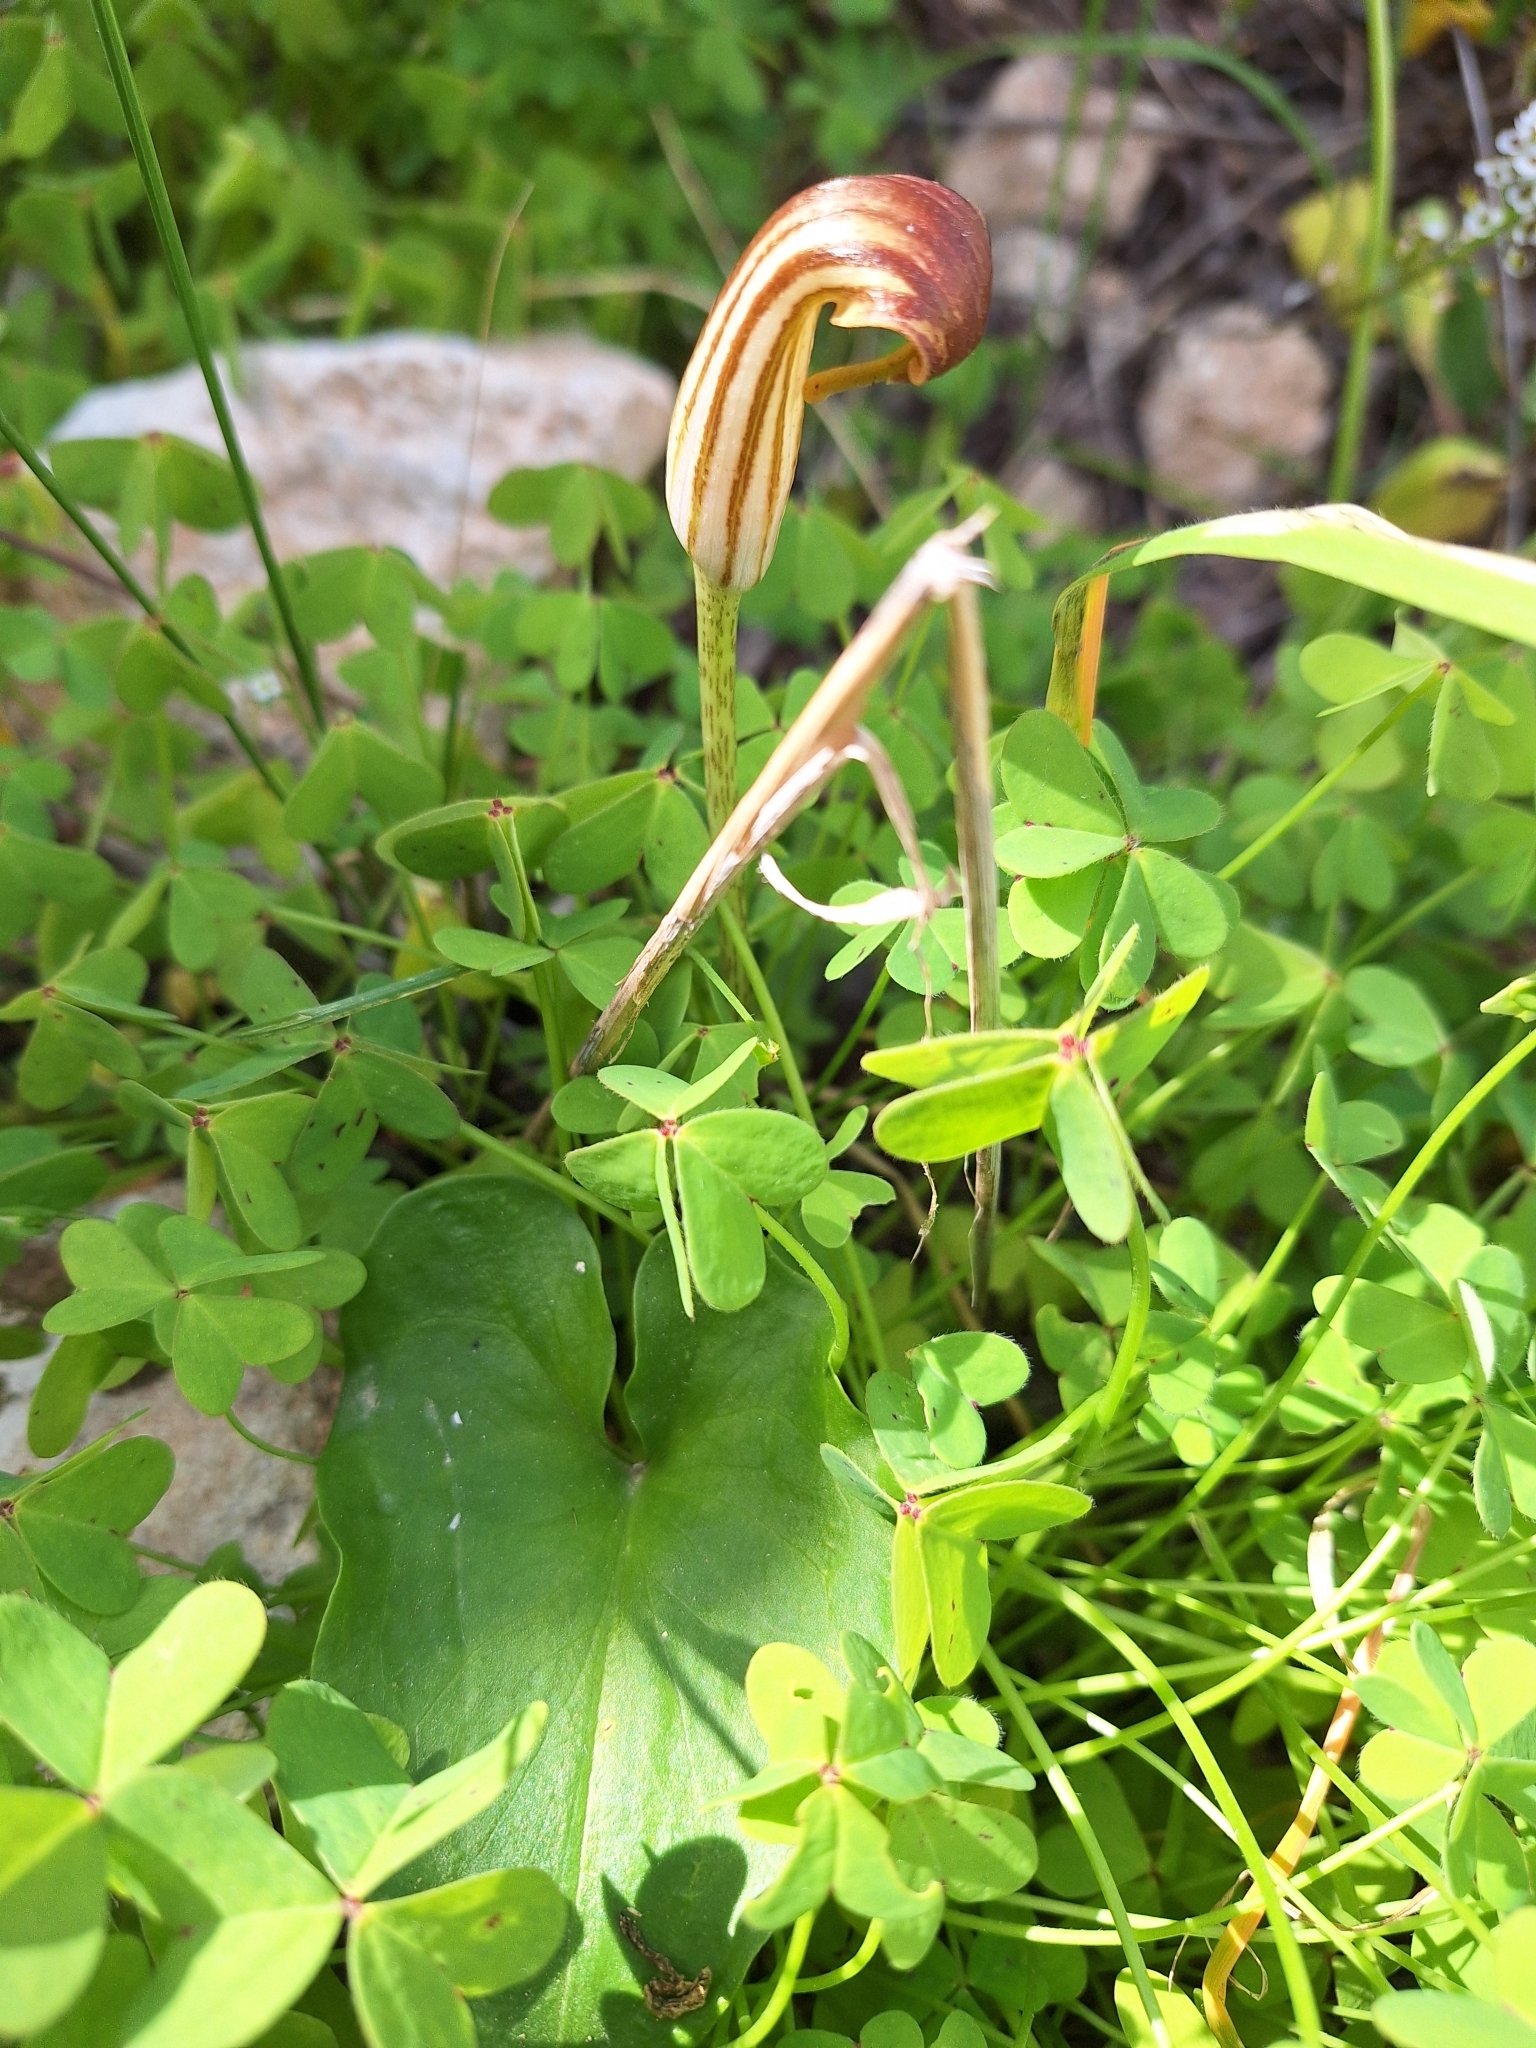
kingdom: Plantae
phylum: Tracheophyta
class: Liliopsida
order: Alismatales
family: Araceae
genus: Arisarum
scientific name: Arisarum vulgare
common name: Common arisarum
